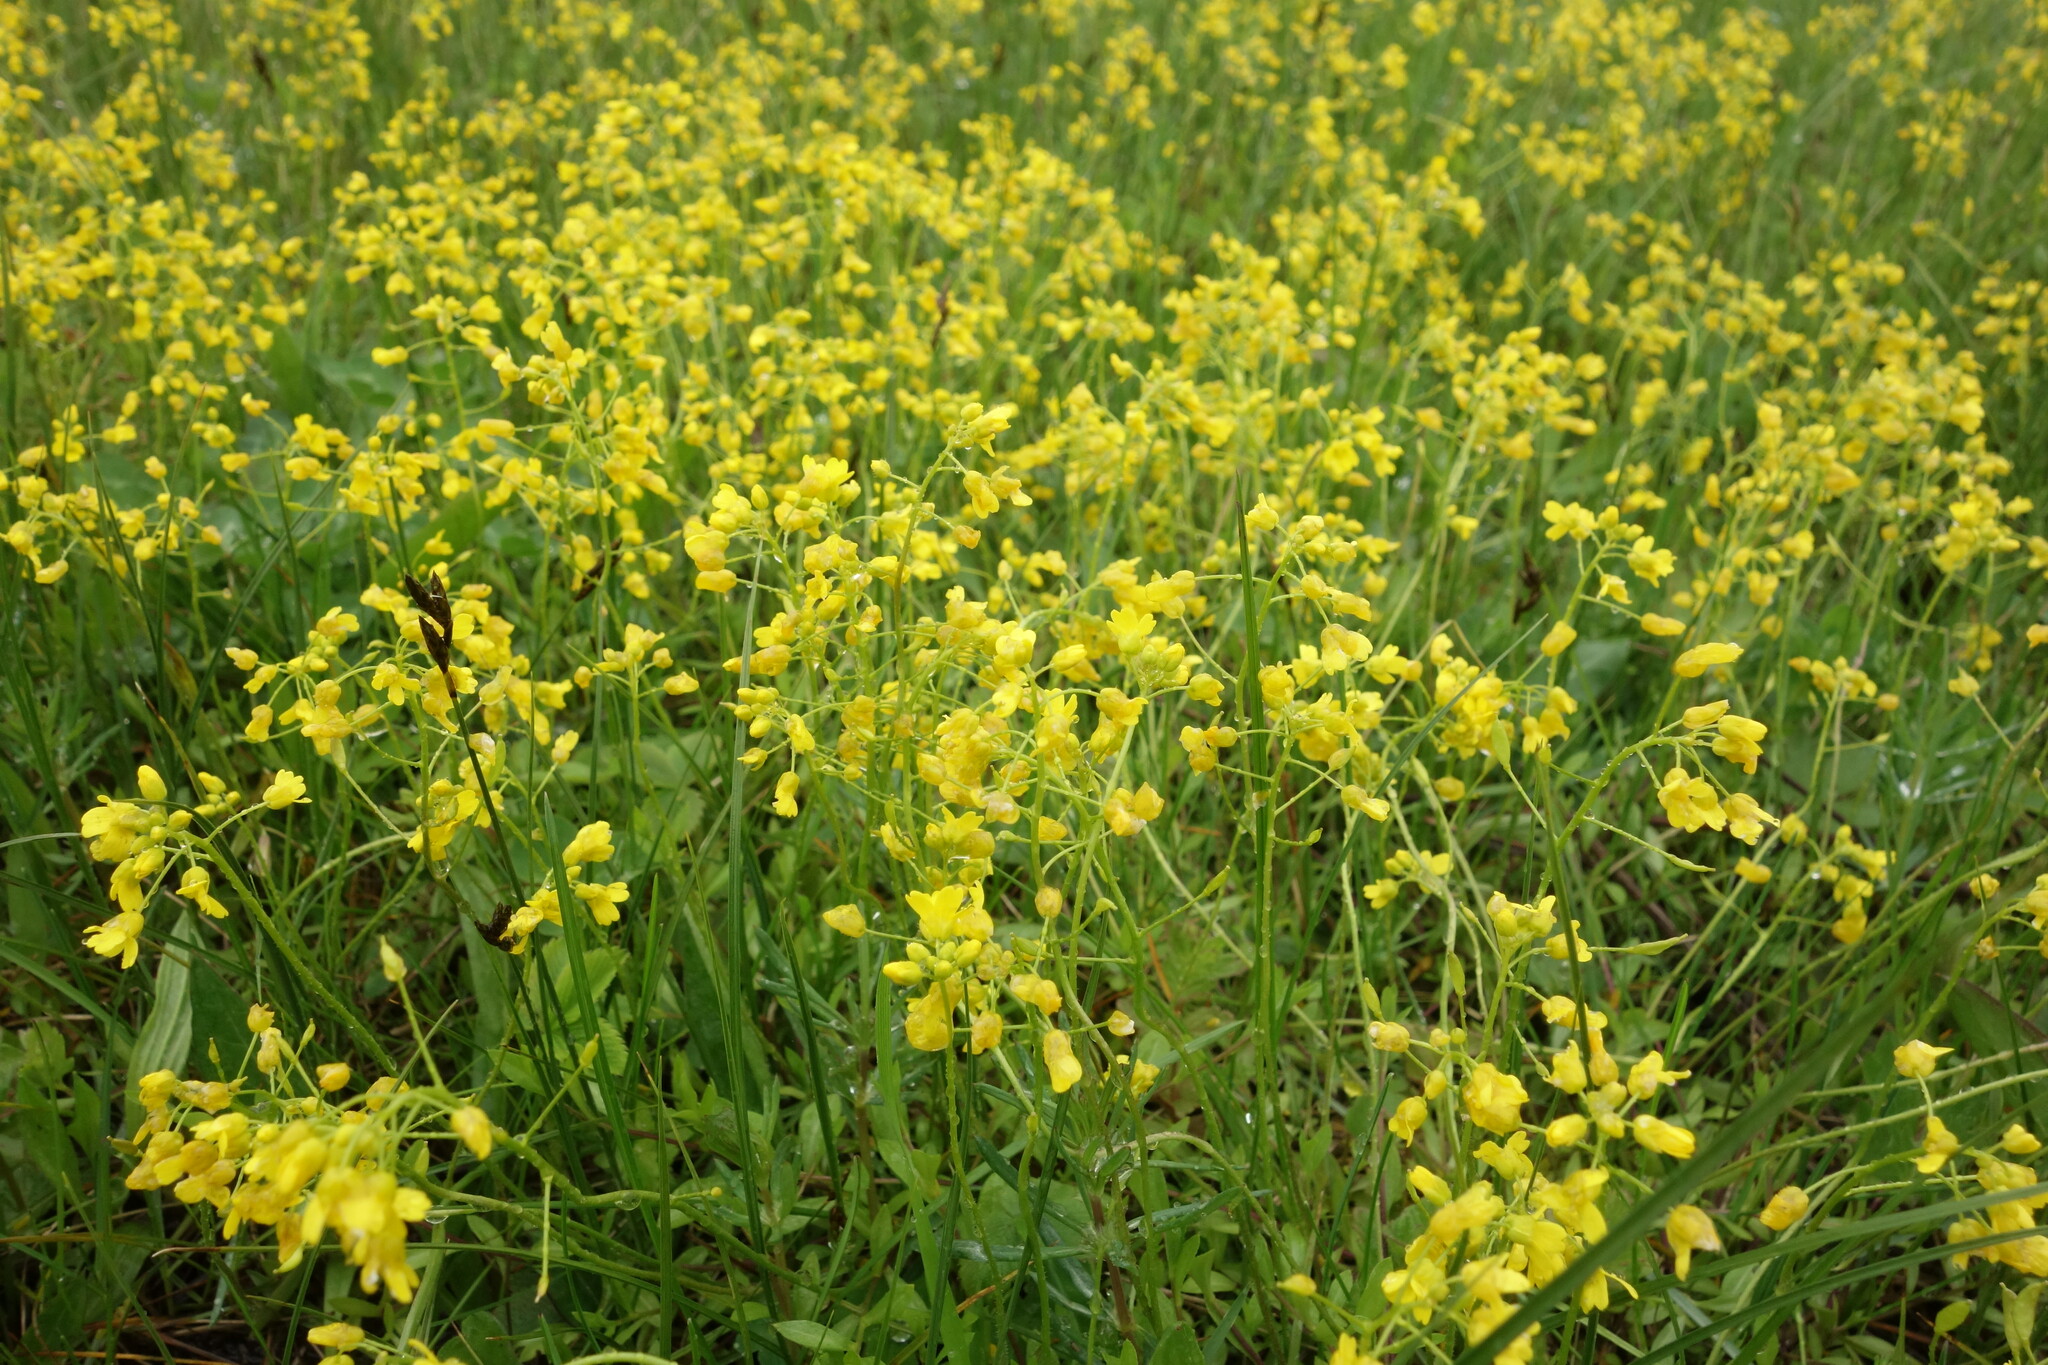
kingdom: Plantae
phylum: Tracheophyta
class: Magnoliopsida
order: Brassicales
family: Brassicaceae
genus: Draba
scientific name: Draba sibirica
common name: Siberian draba
